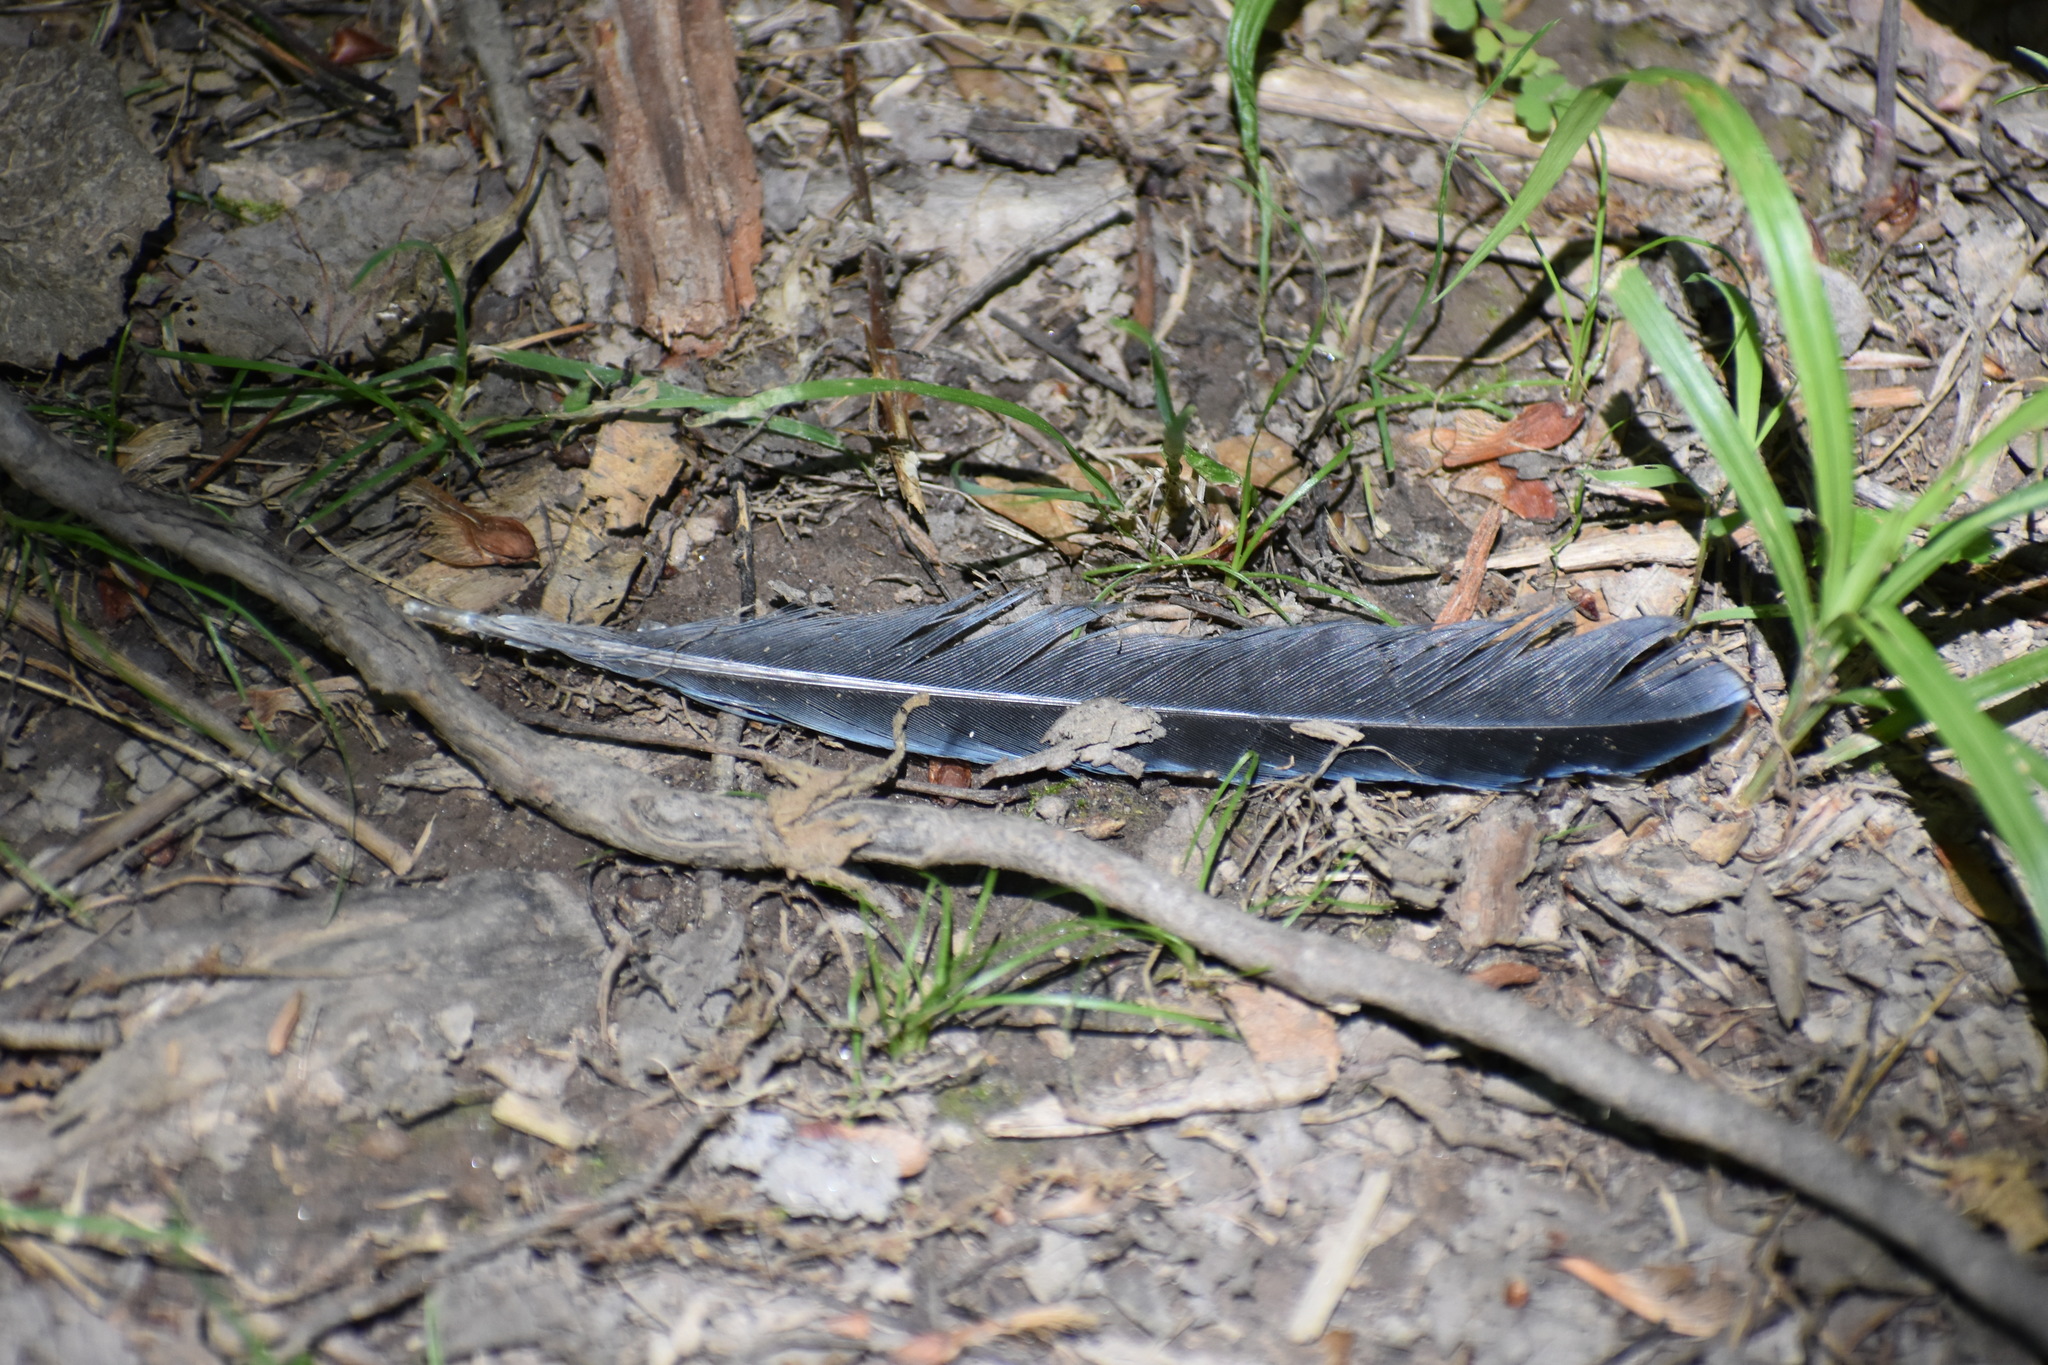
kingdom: Animalia
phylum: Chordata
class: Aves
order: Passeriformes
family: Corvidae
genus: Cyanocitta
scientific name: Cyanocitta cristata
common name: Blue jay
